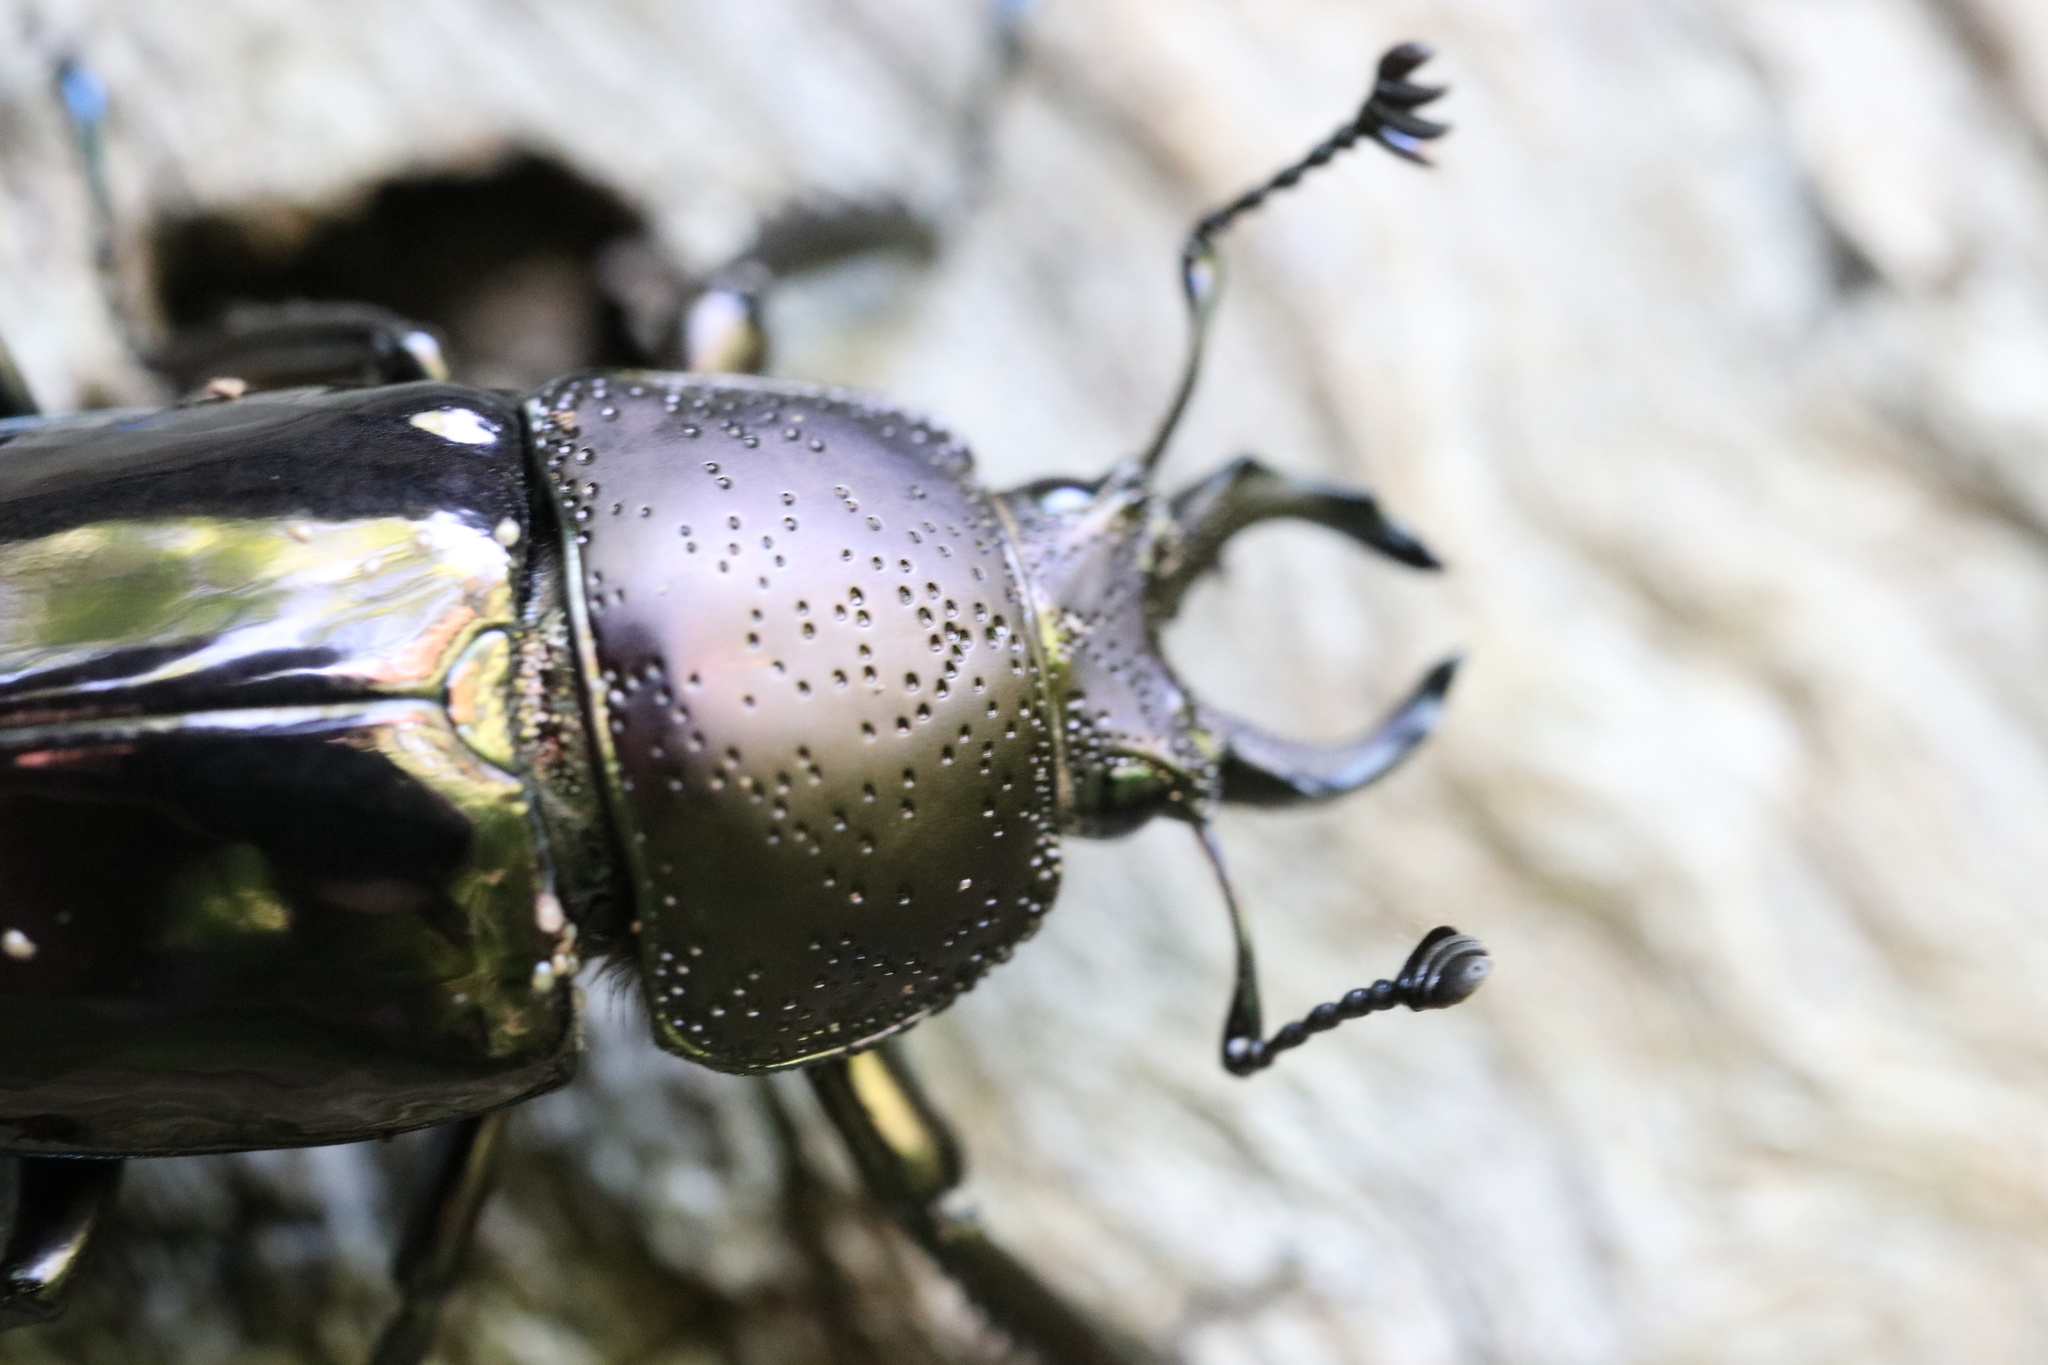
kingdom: Animalia
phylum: Arthropoda
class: Insecta
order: Coleoptera
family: Lucanidae
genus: Streptocerus
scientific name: Streptocerus speciosus
